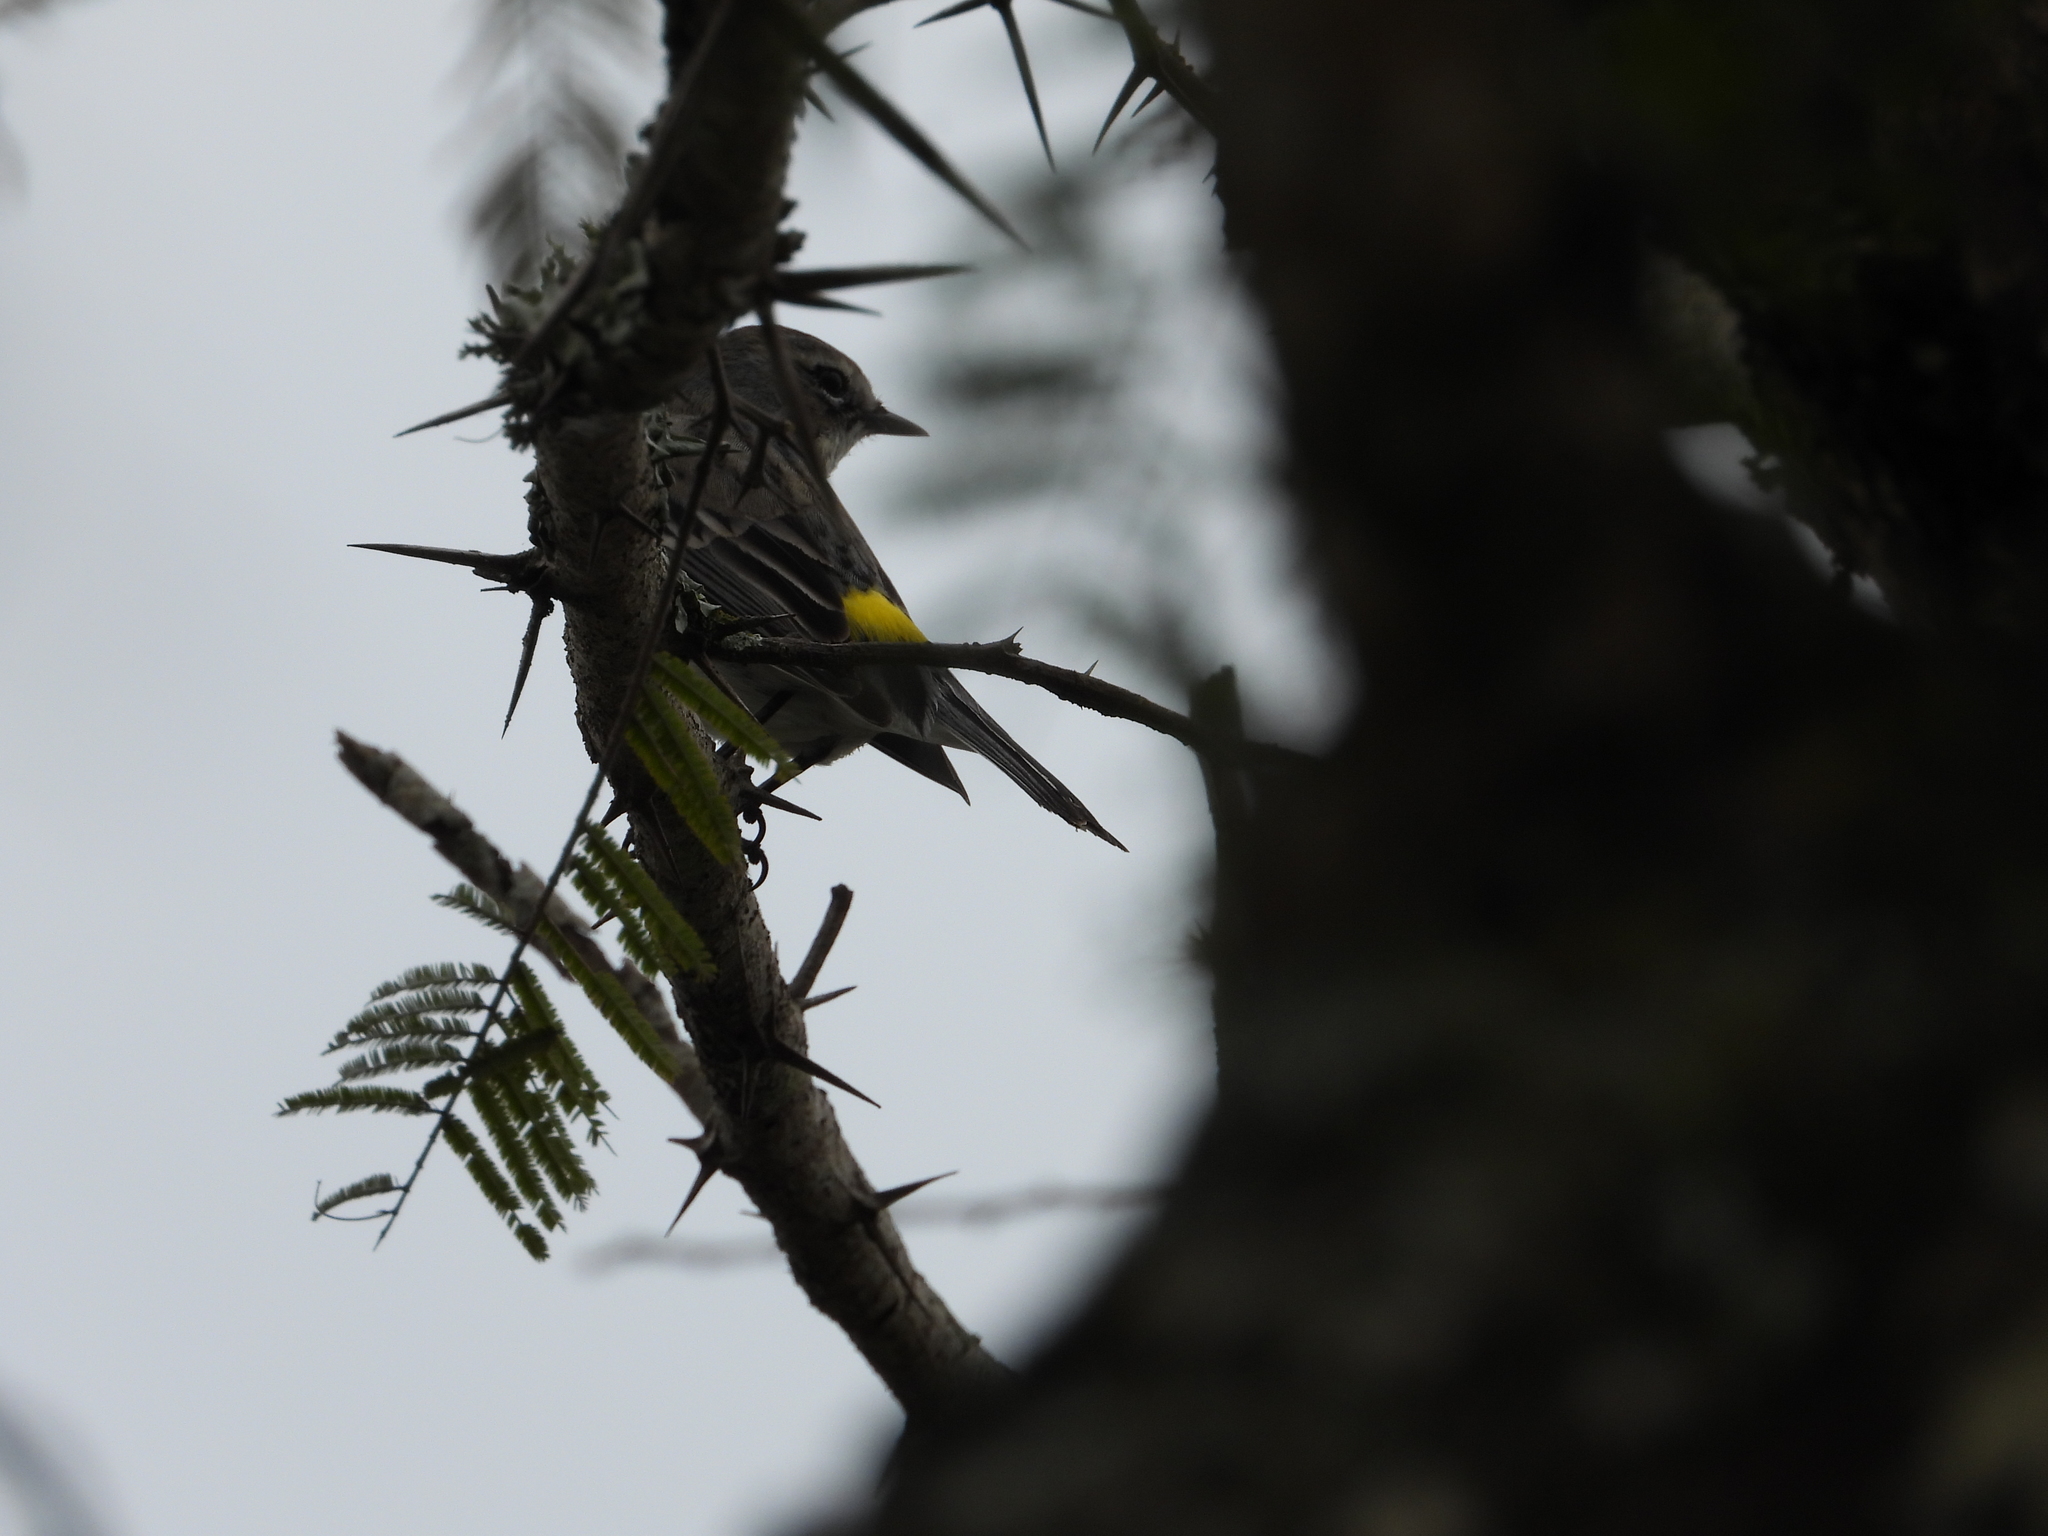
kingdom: Animalia
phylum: Chordata
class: Aves
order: Passeriformes
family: Parulidae
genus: Setophaga
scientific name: Setophaga coronata
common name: Myrtle warbler
